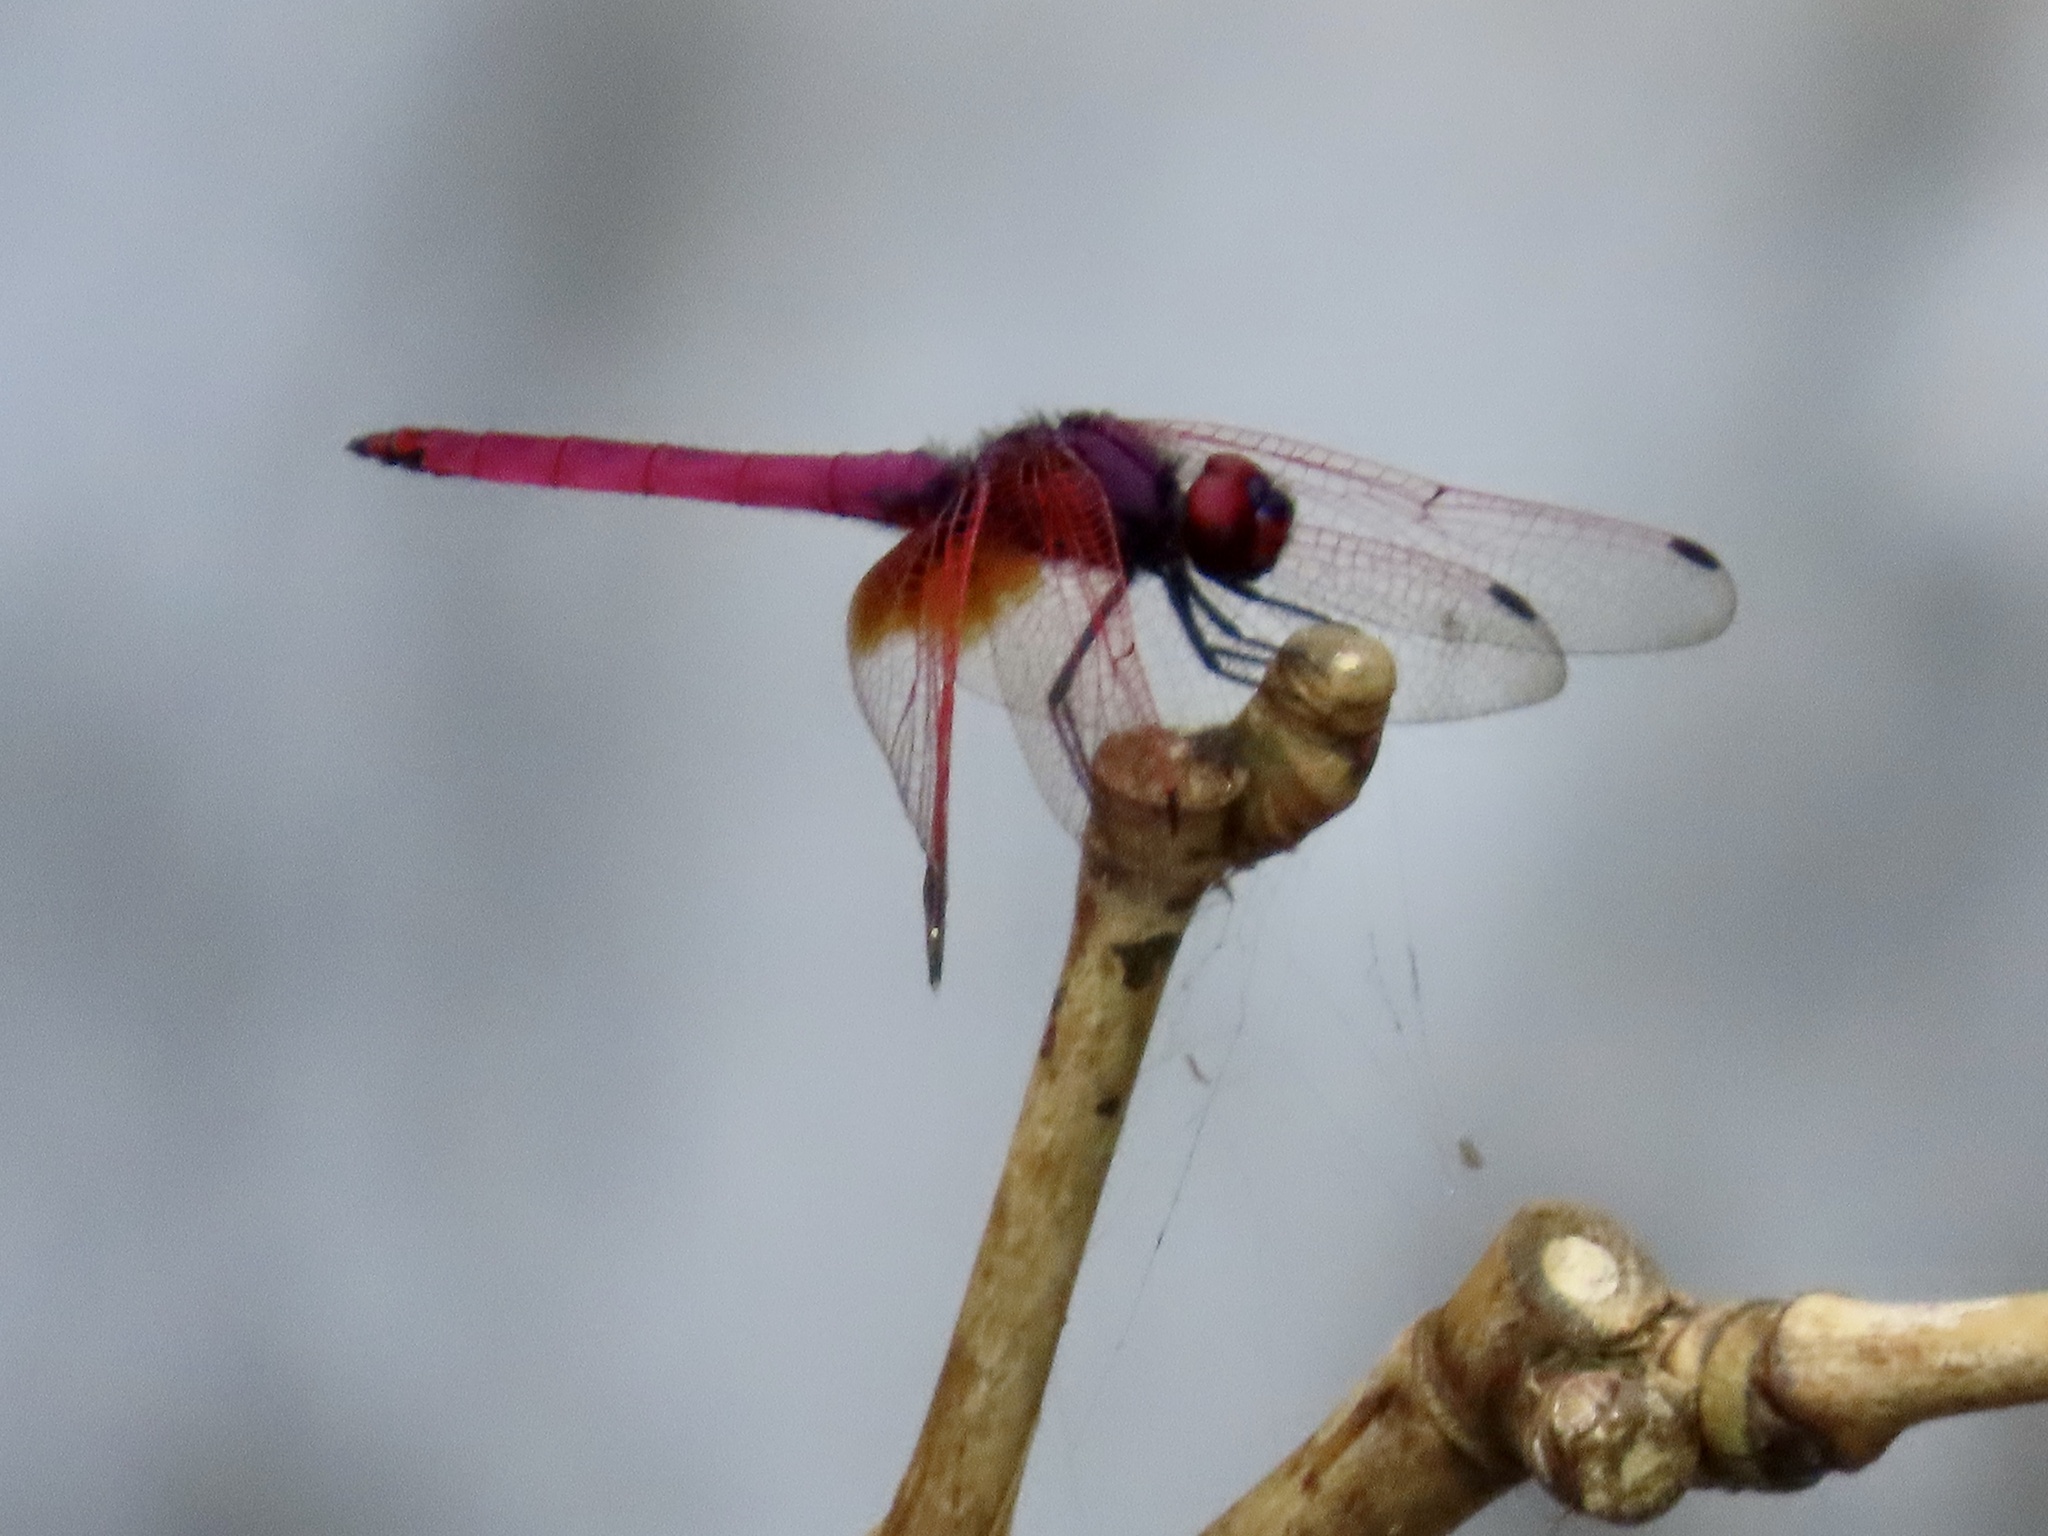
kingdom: Animalia
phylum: Arthropoda
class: Insecta
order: Odonata
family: Libellulidae
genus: Trithemis
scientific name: Trithemis aurora
